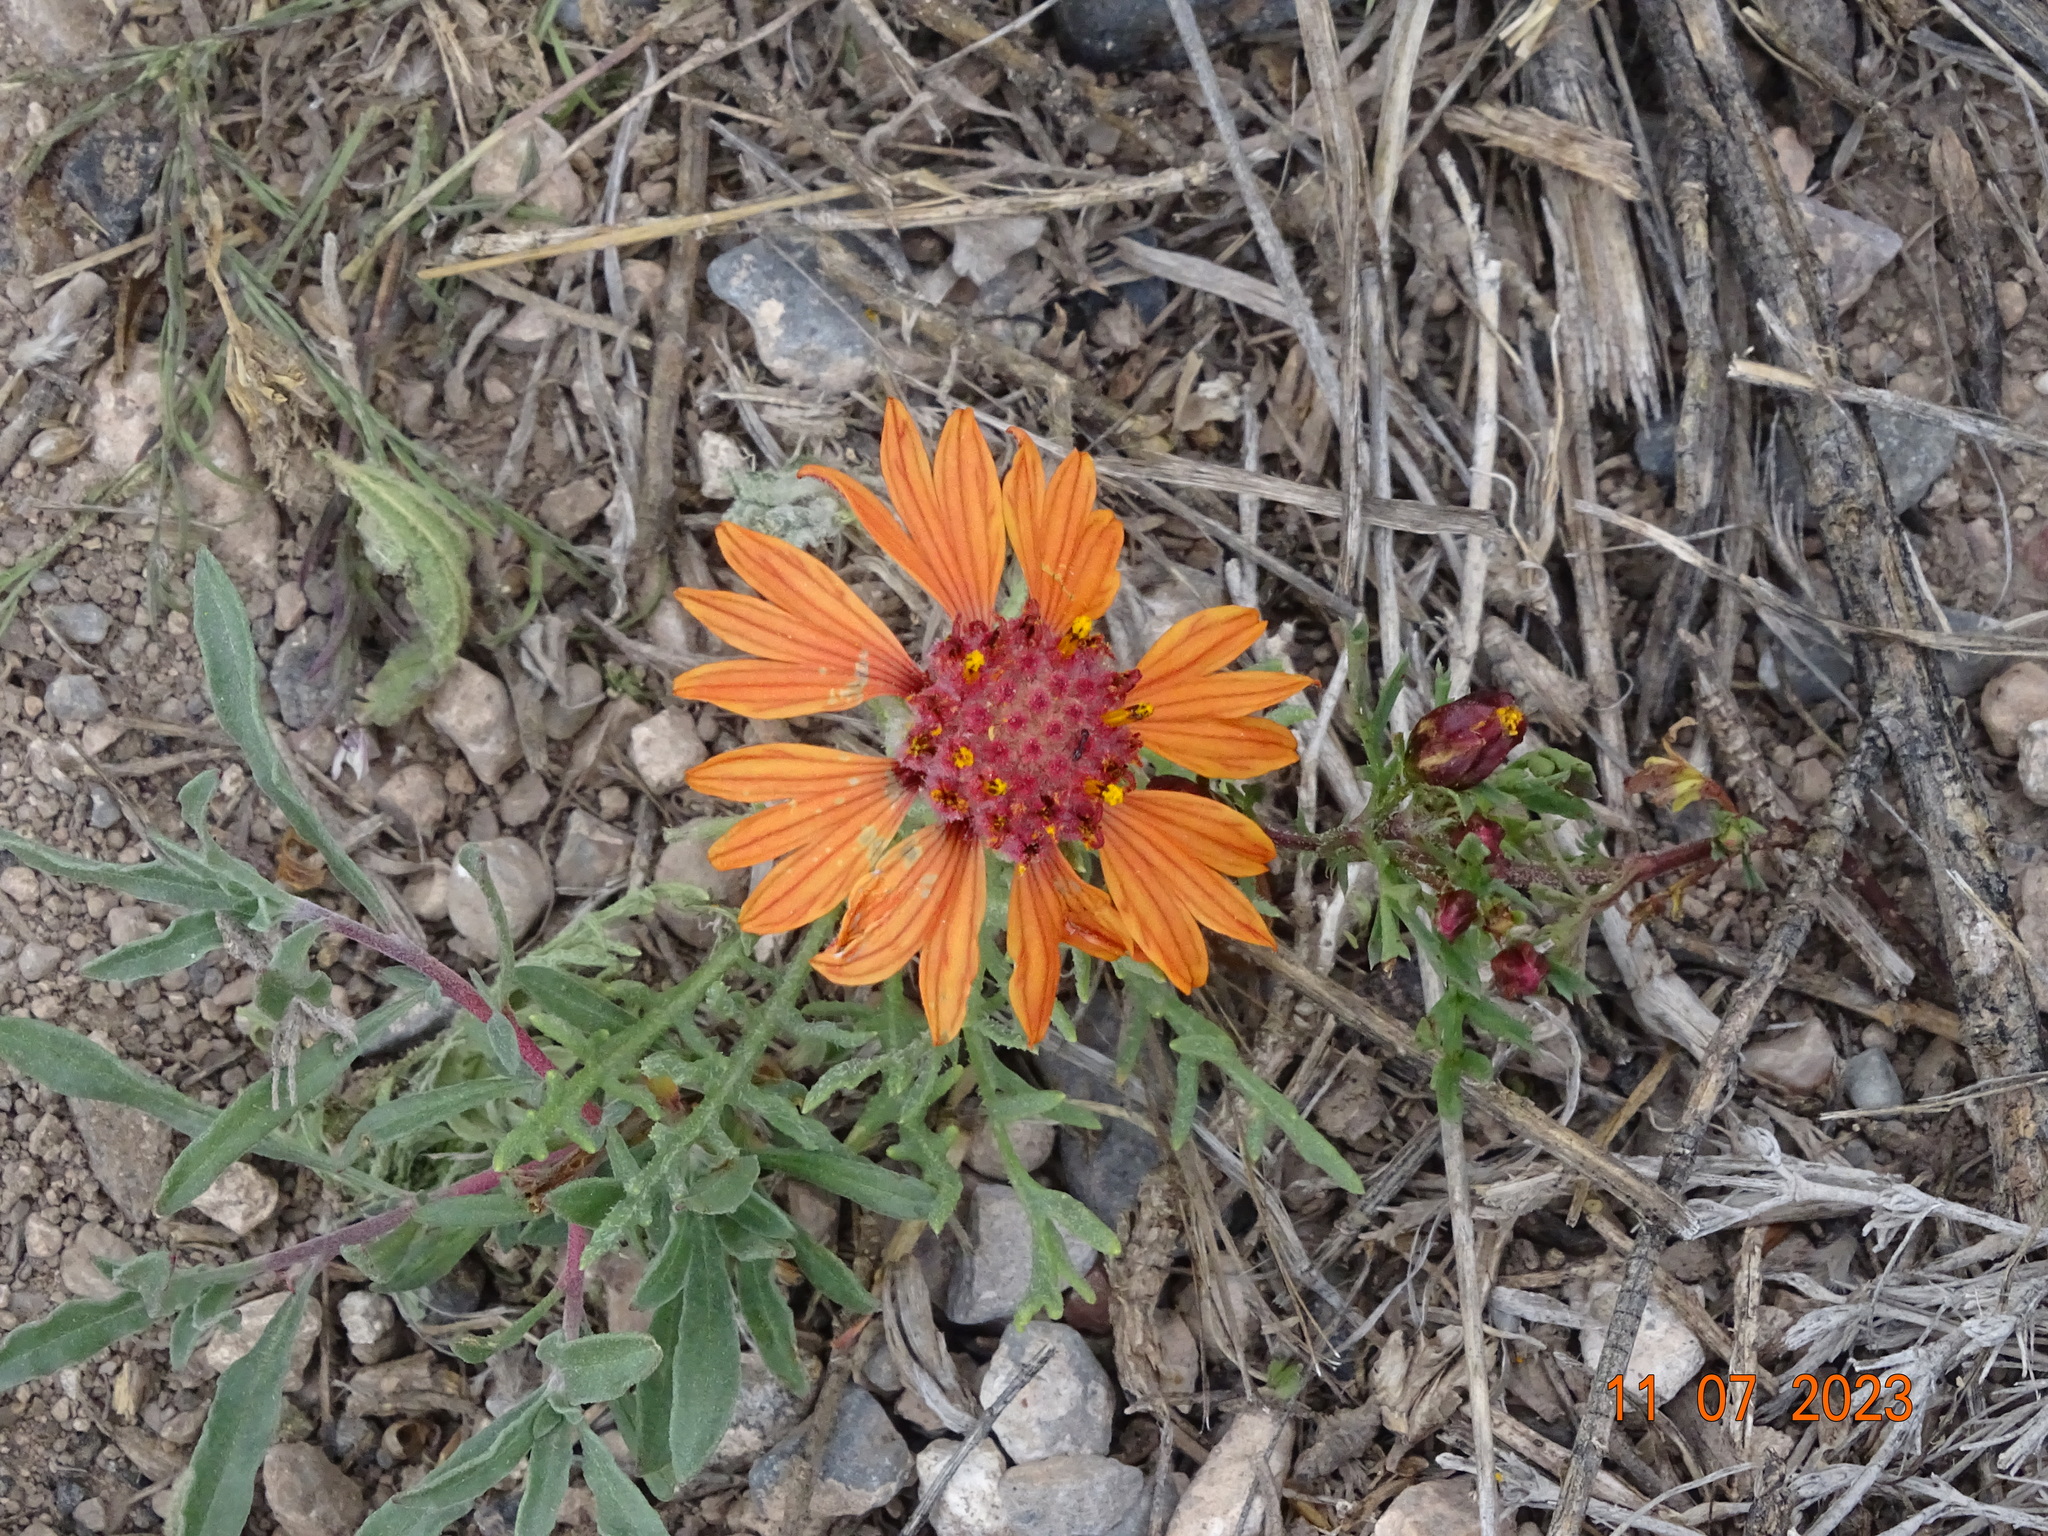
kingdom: Plantae
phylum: Tracheophyta
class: Magnoliopsida
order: Asterales
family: Asteraceae
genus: Gaillardia
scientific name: Gaillardia comosa
